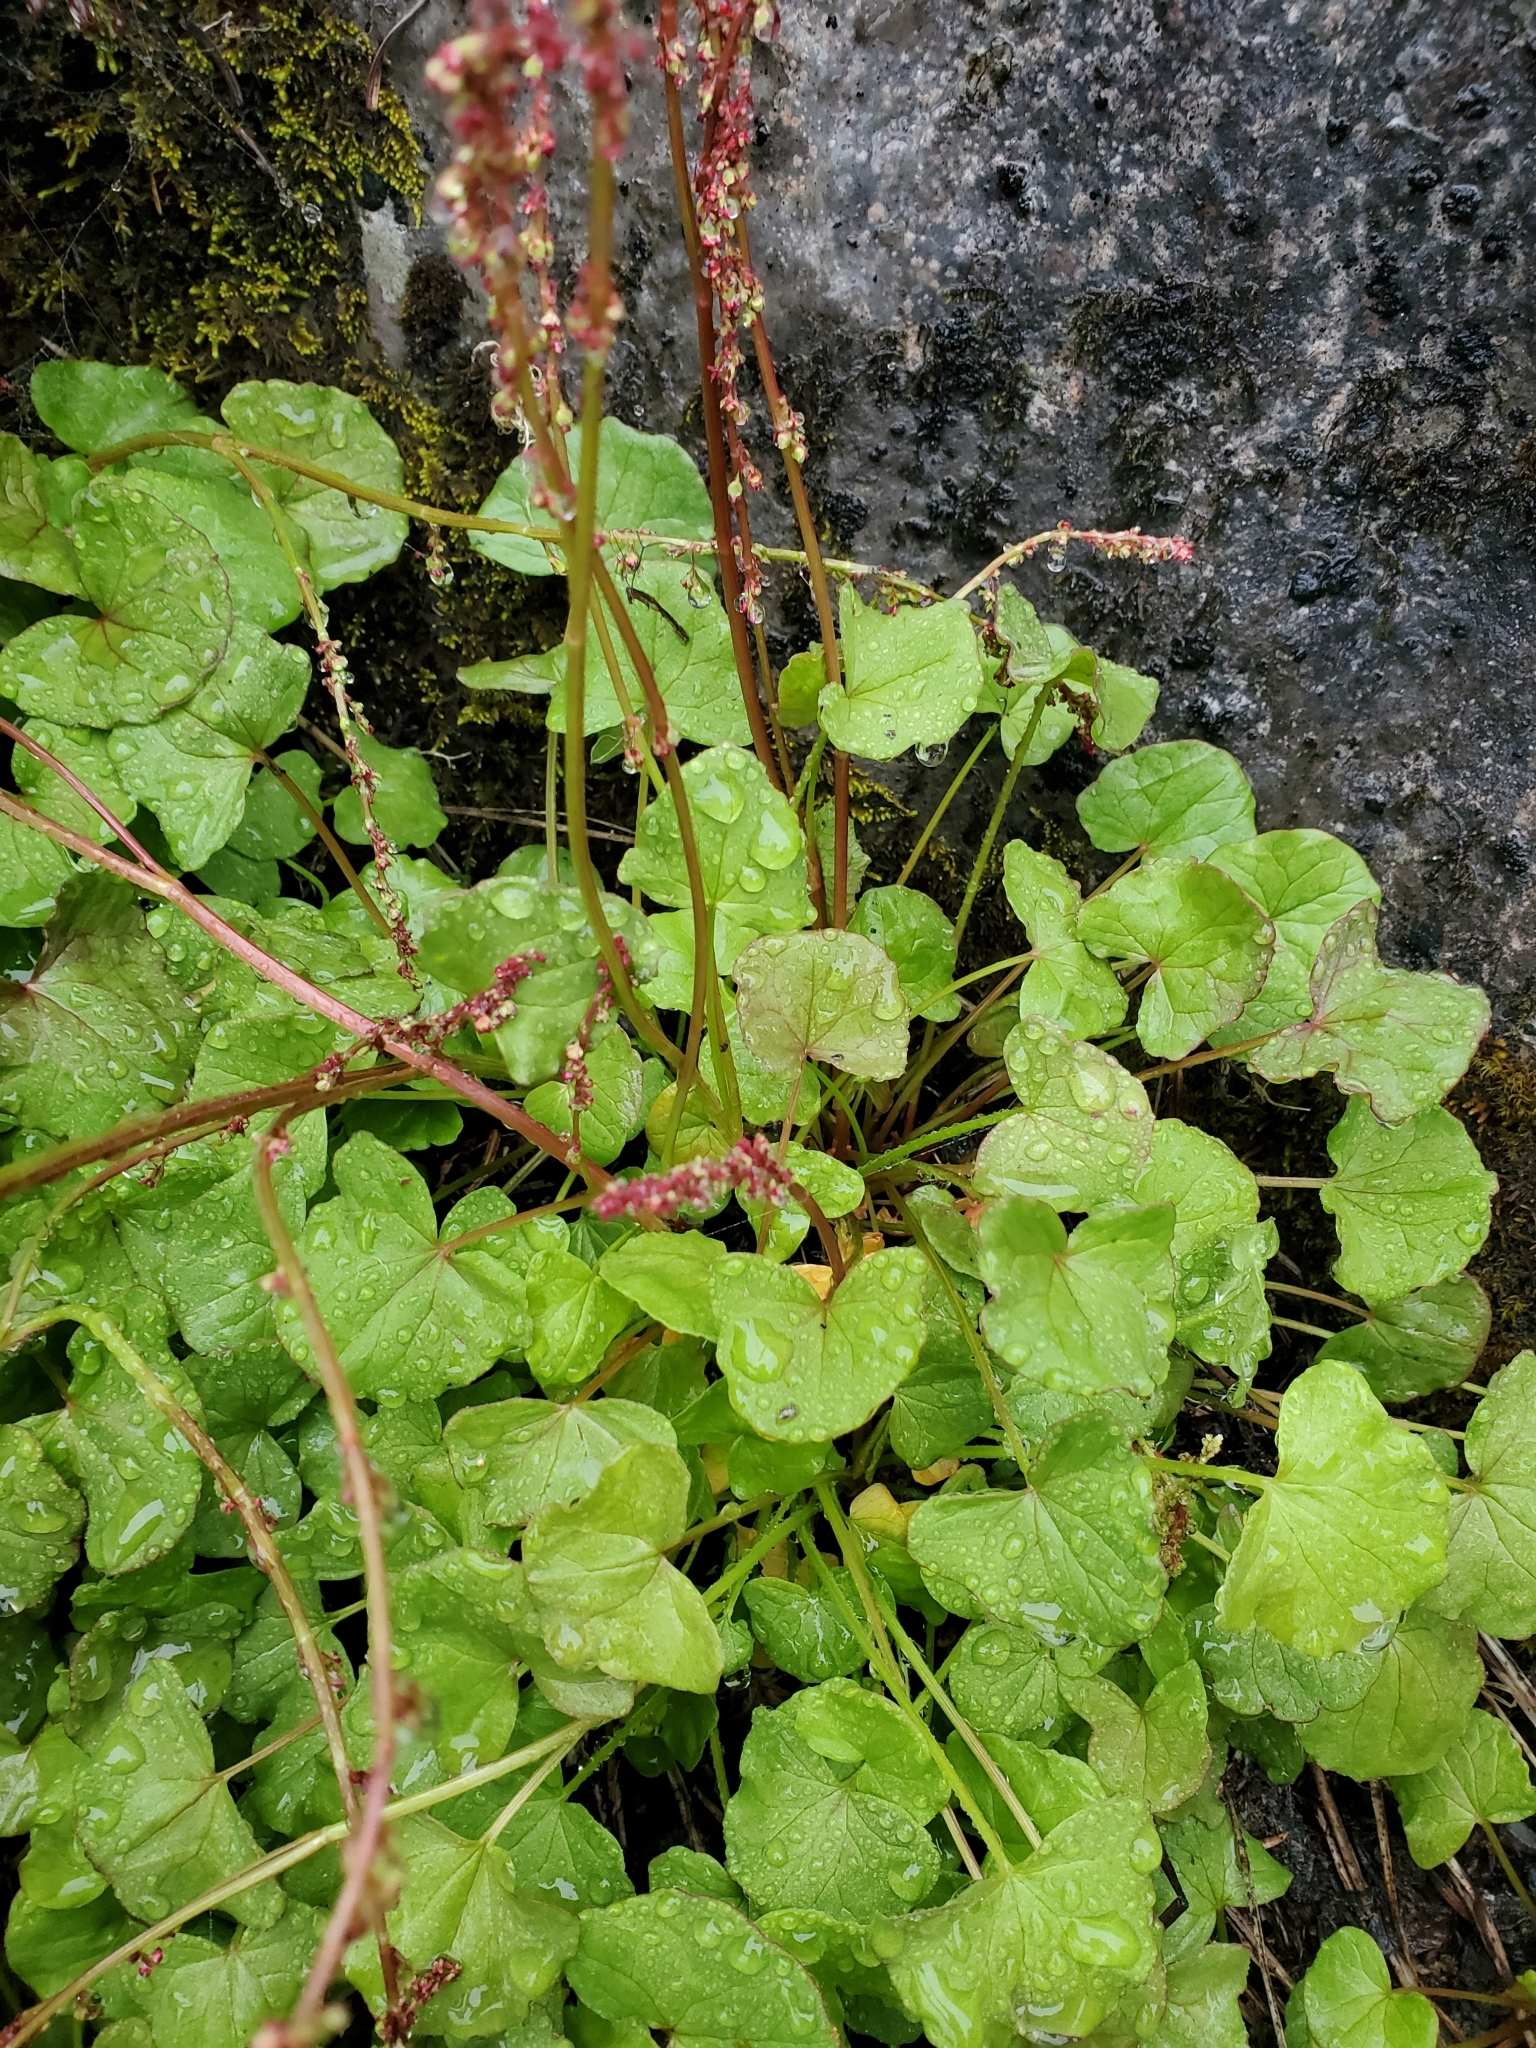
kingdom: Plantae
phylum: Tracheophyta
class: Magnoliopsida
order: Caryophyllales
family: Polygonaceae
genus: Oxyria
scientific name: Oxyria digyna
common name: Alpine mountain-sorrel
